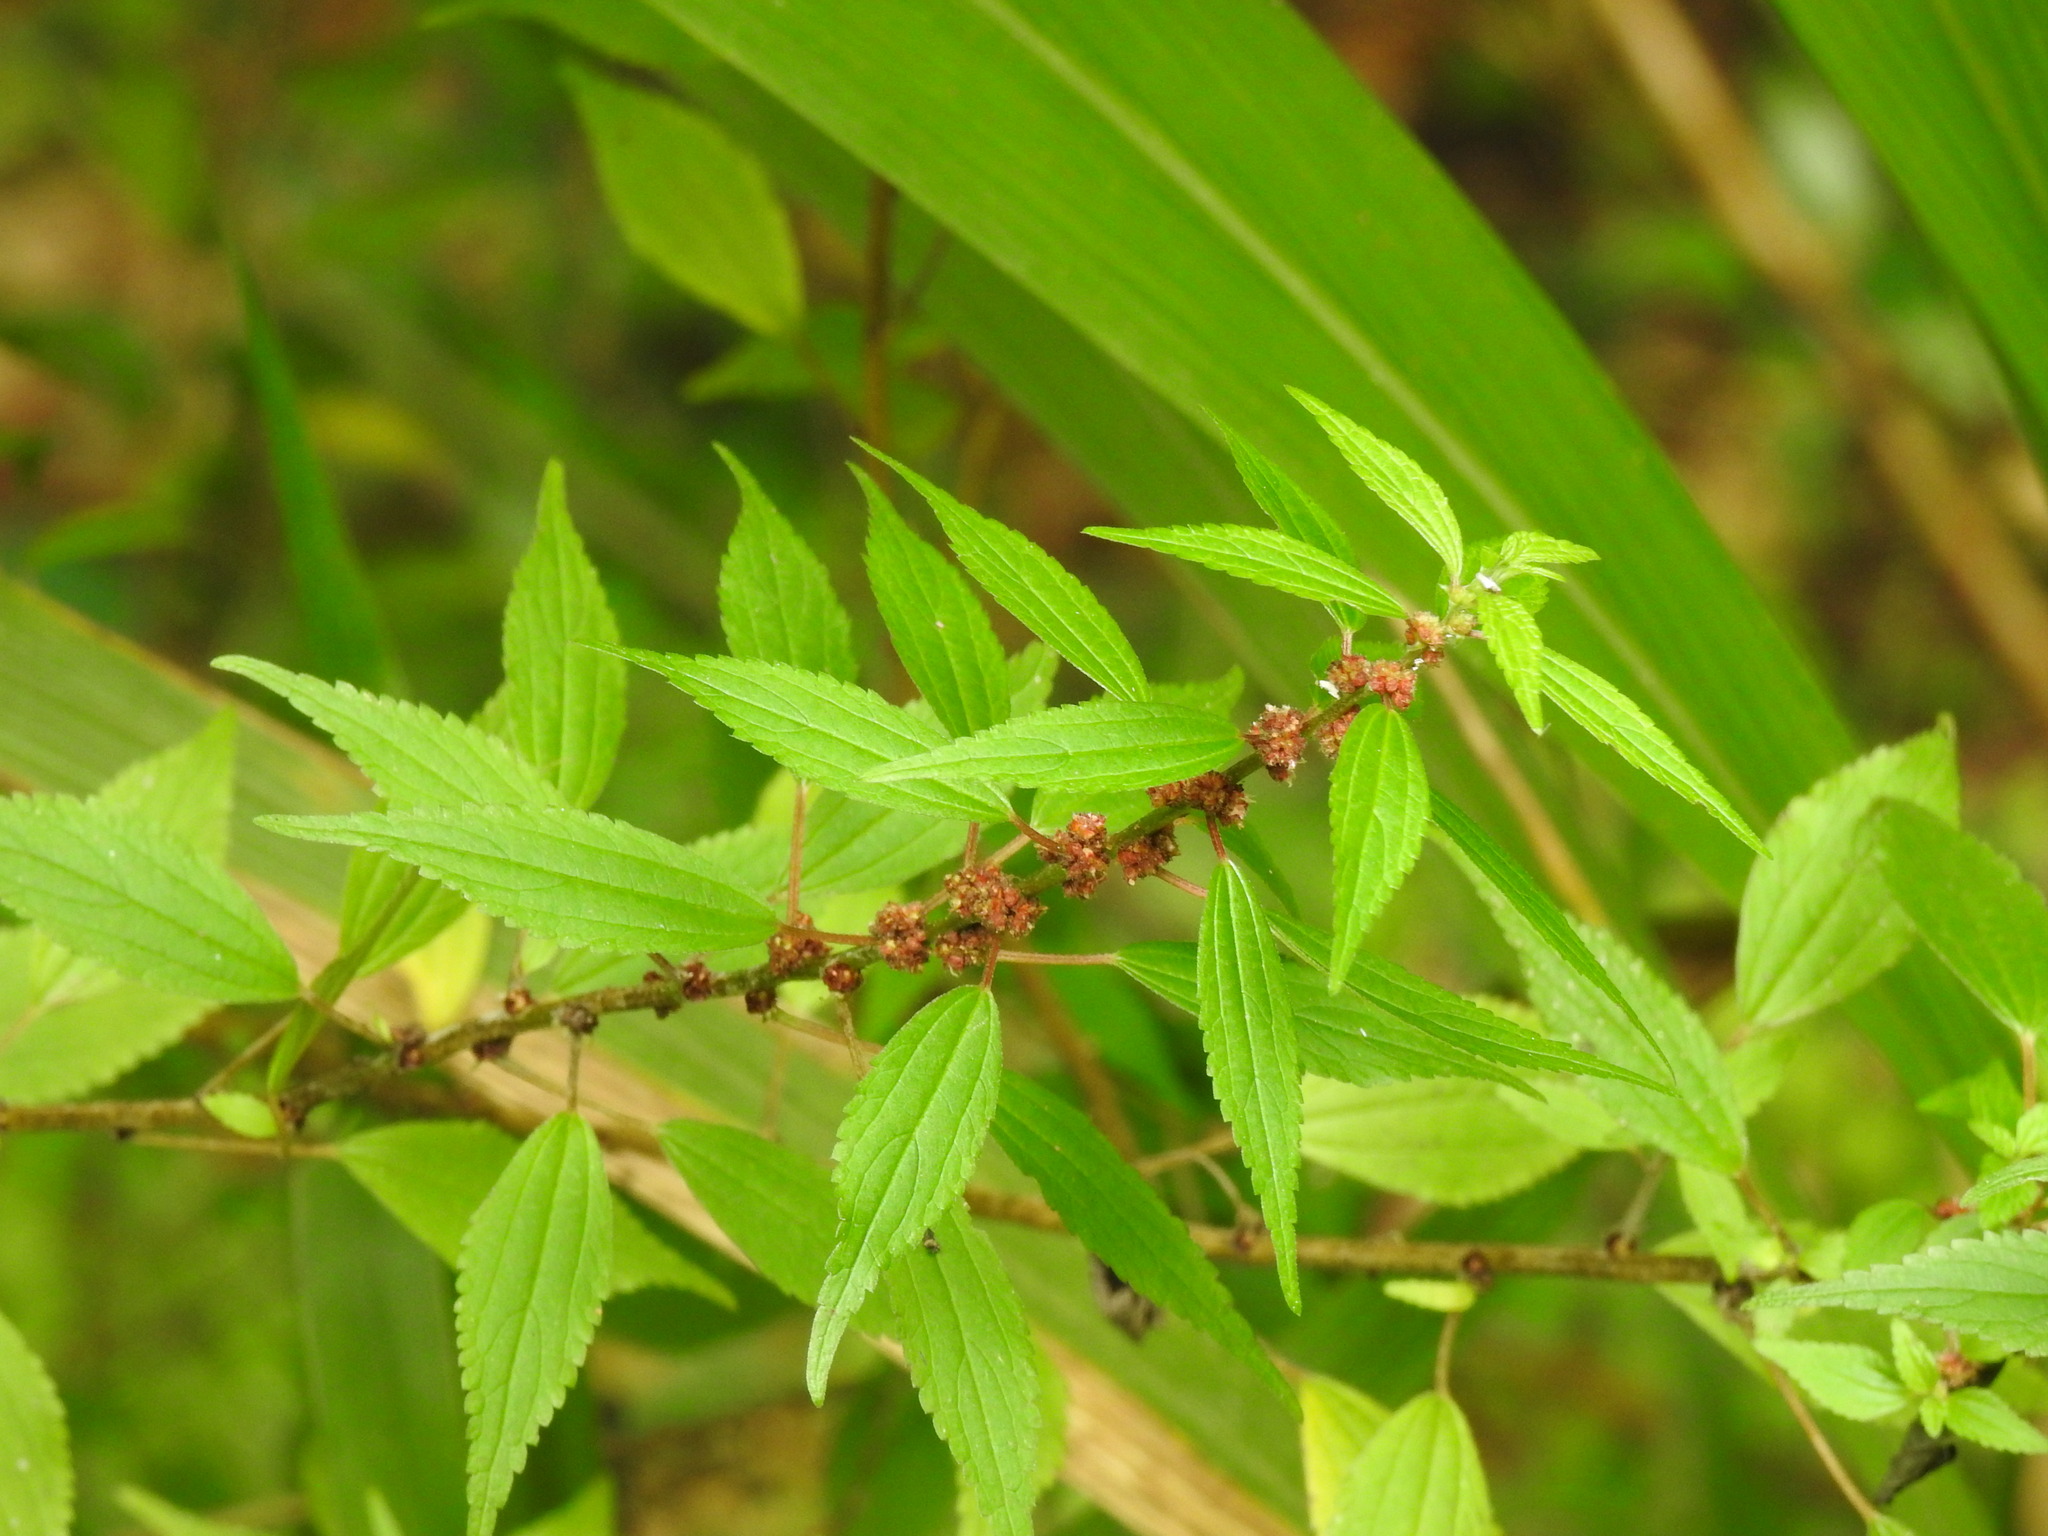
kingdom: Plantae
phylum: Tracheophyta
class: Magnoliopsida
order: Rosales
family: Urticaceae
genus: Phenax
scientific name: Phenax sonneratii
